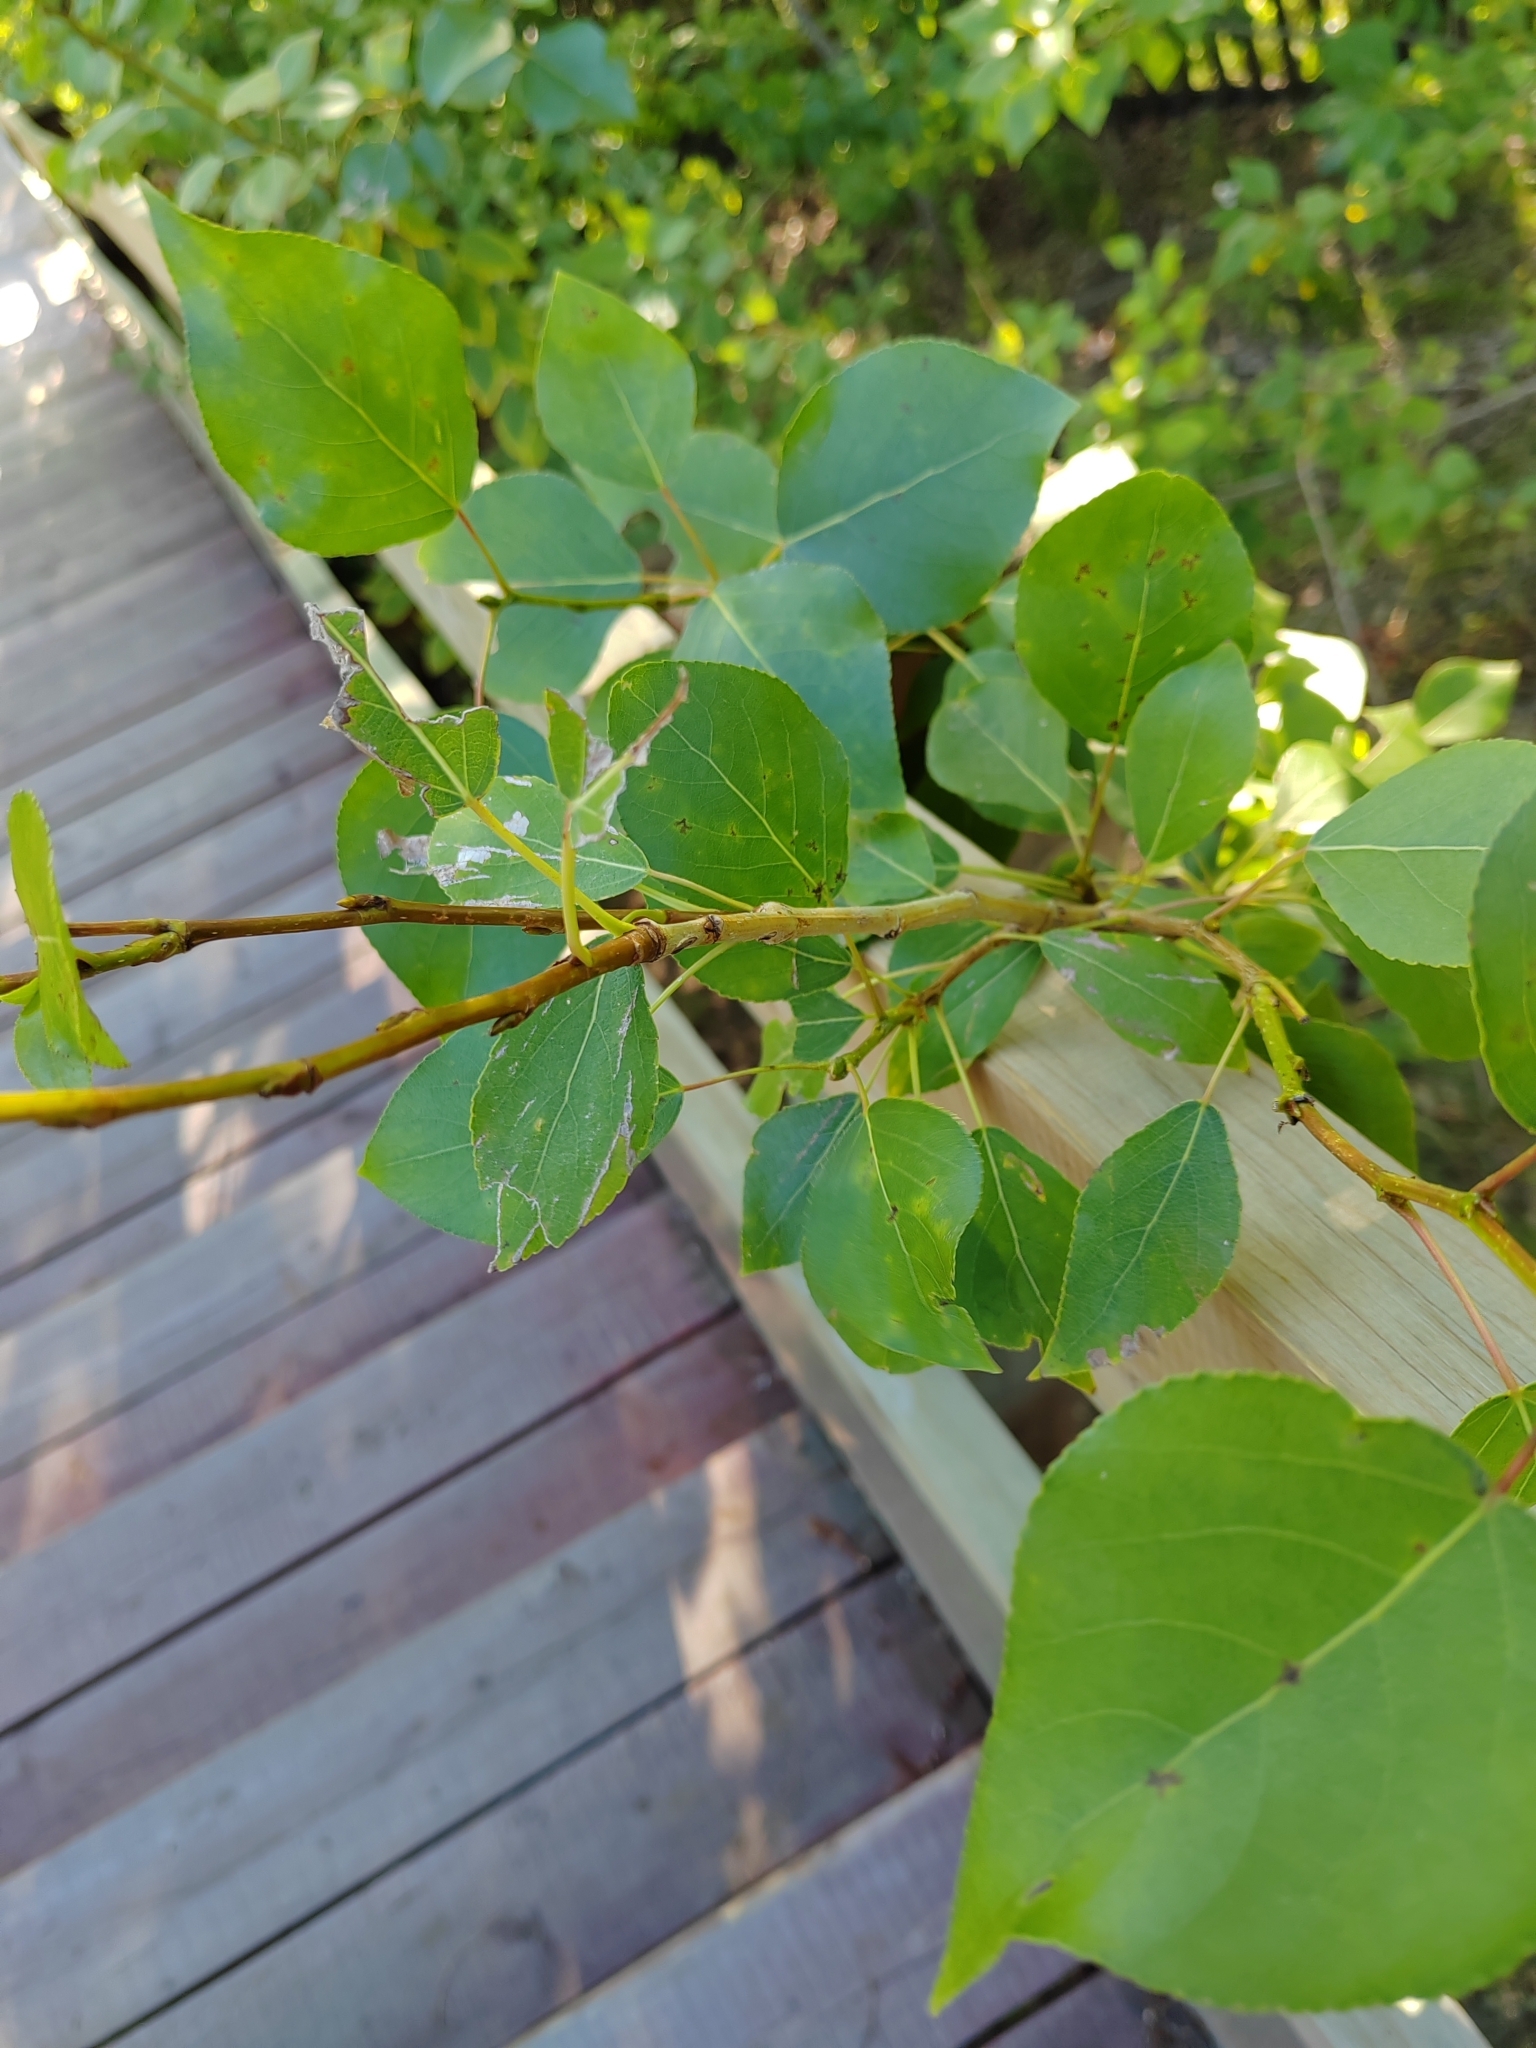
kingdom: Plantae
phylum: Tracheophyta
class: Magnoliopsida
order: Malpighiales
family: Salicaceae
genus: Populus
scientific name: Populus sibirica
